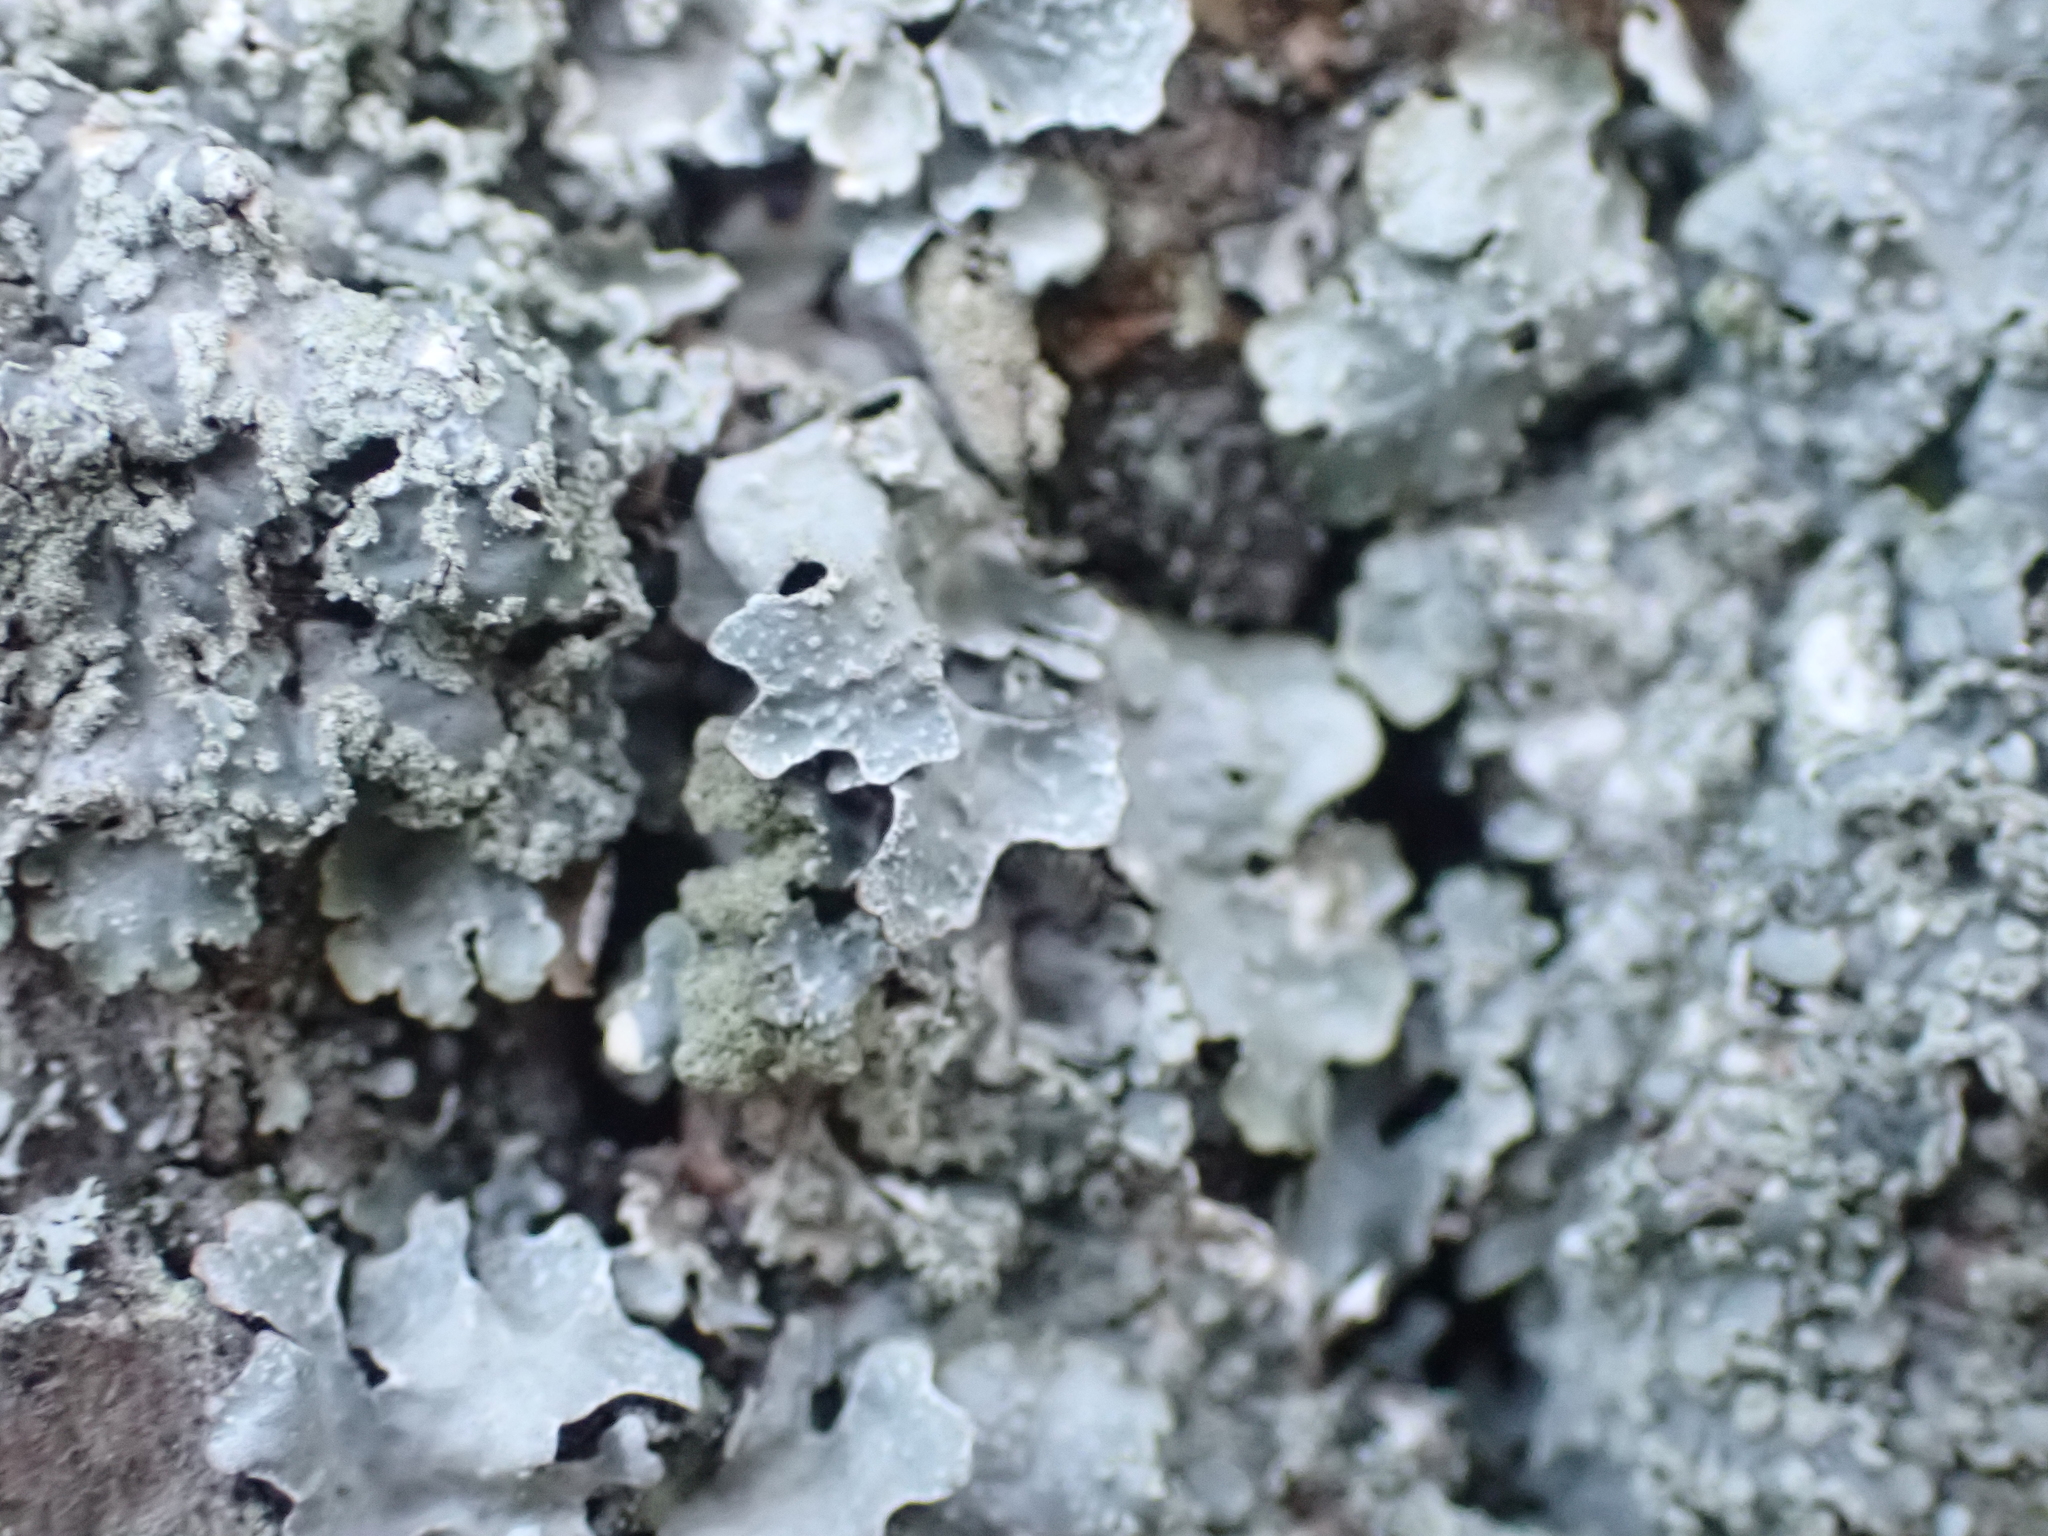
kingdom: Fungi
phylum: Ascomycota
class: Lecanoromycetes
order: Lecanorales
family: Parmeliaceae
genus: Parmelia
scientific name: Parmelia sulcata
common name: Netted shield lichen
